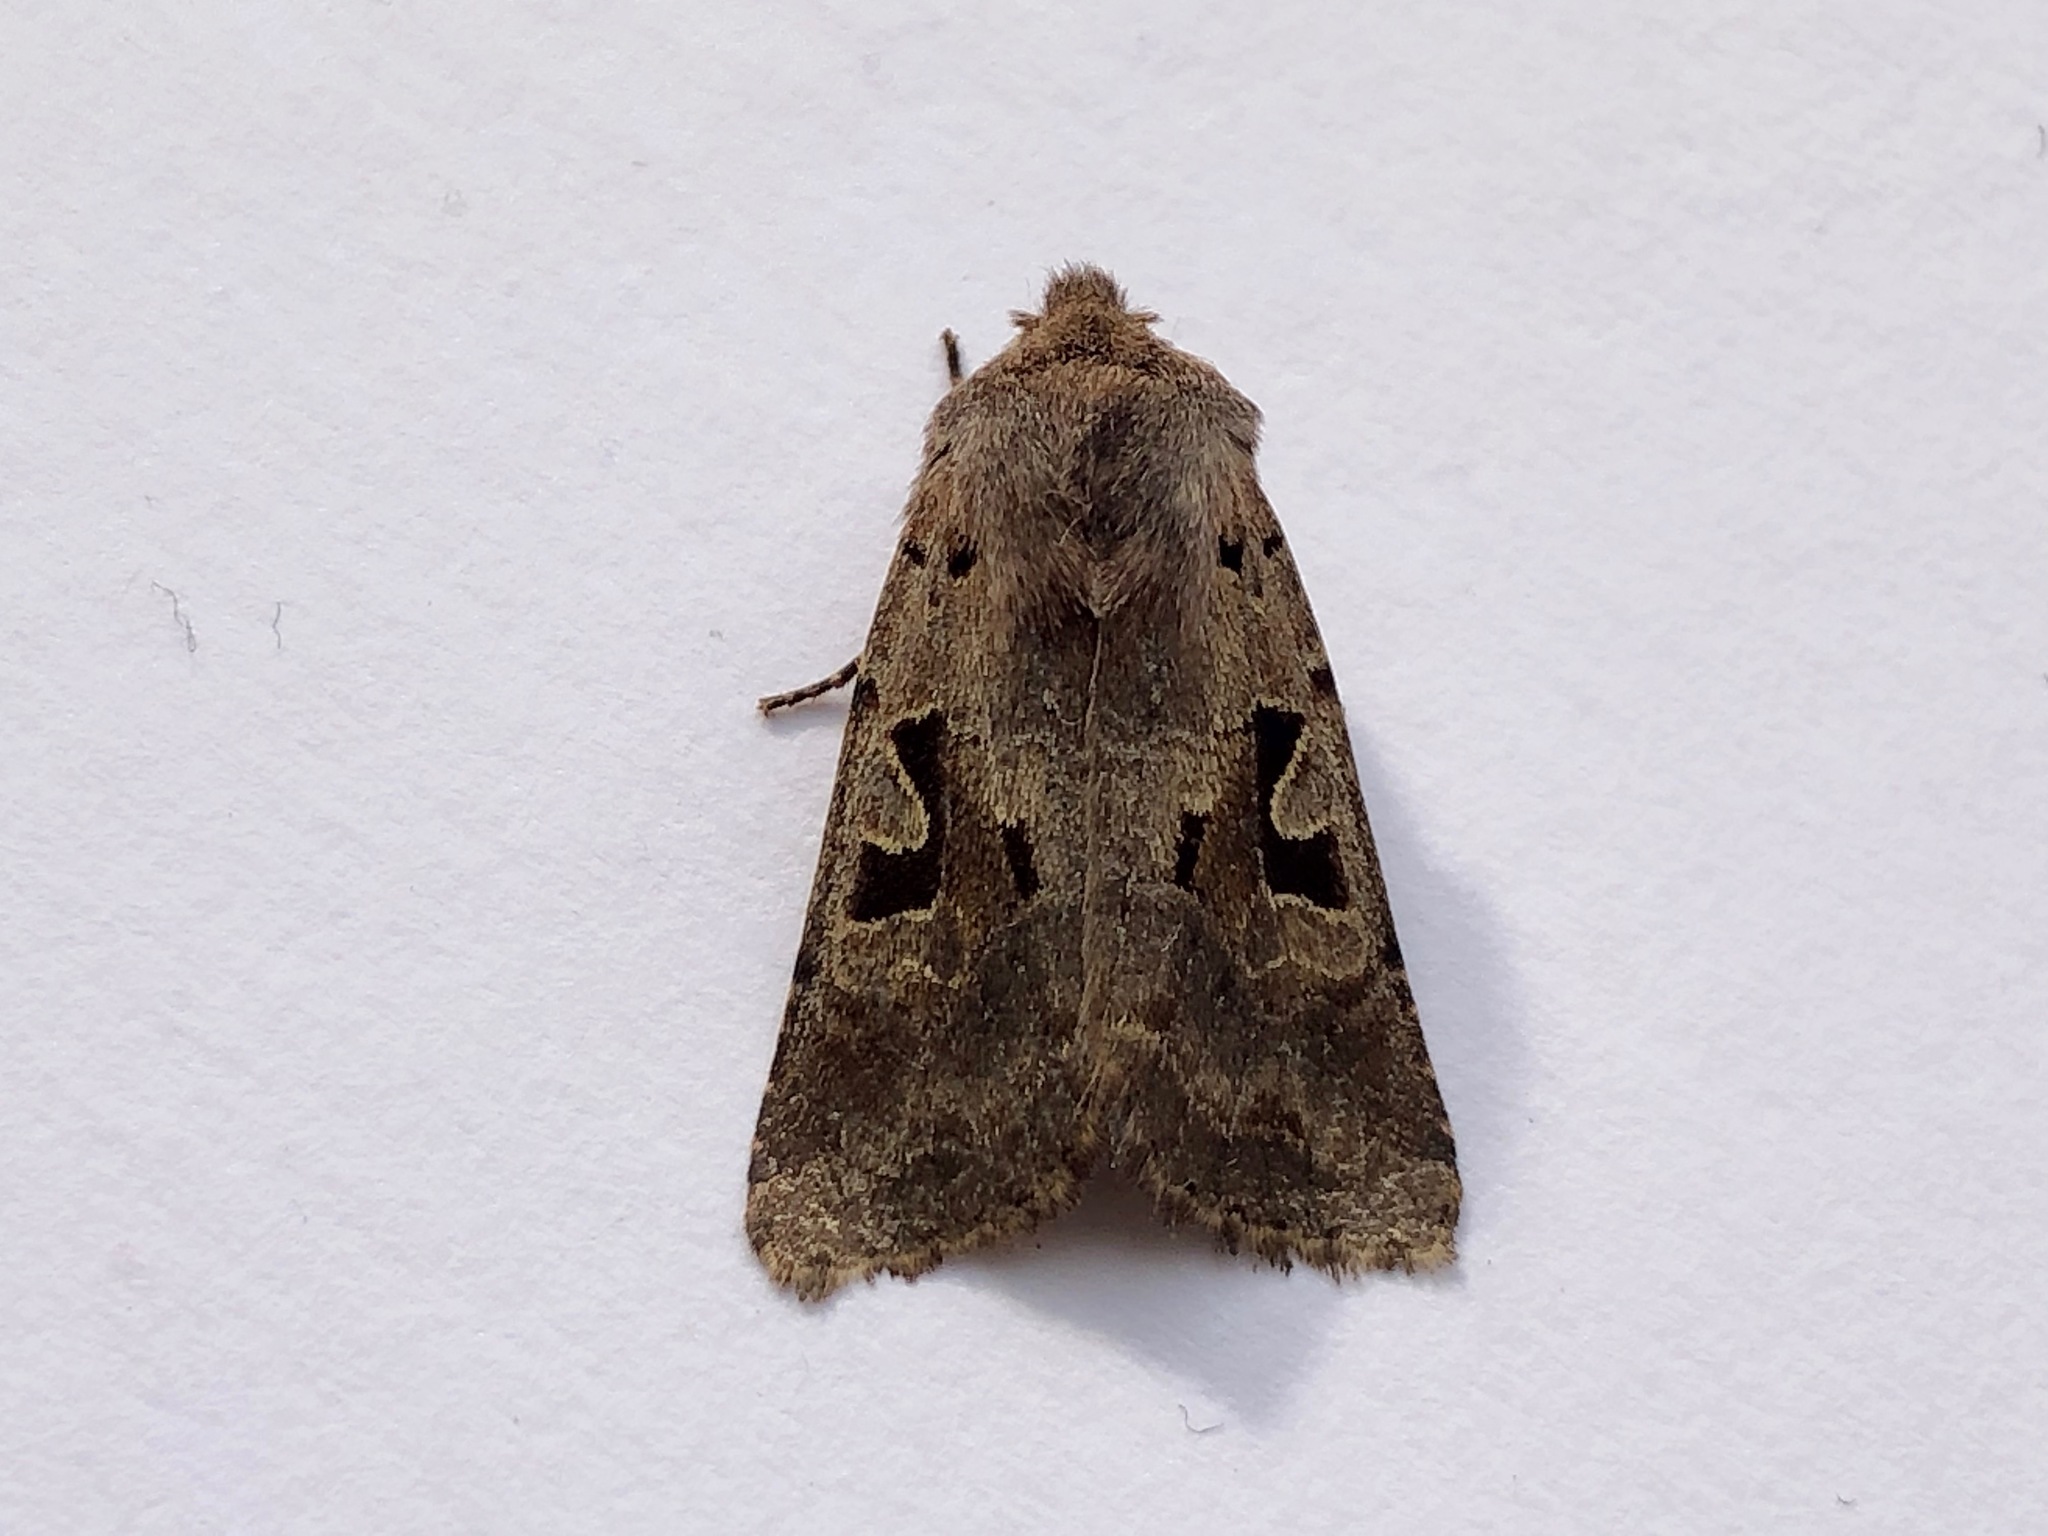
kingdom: Animalia
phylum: Arthropoda
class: Insecta
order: Lepidoptera
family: Noctuidae
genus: Orthosia
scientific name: Orthosia gothica
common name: Hebrew character
